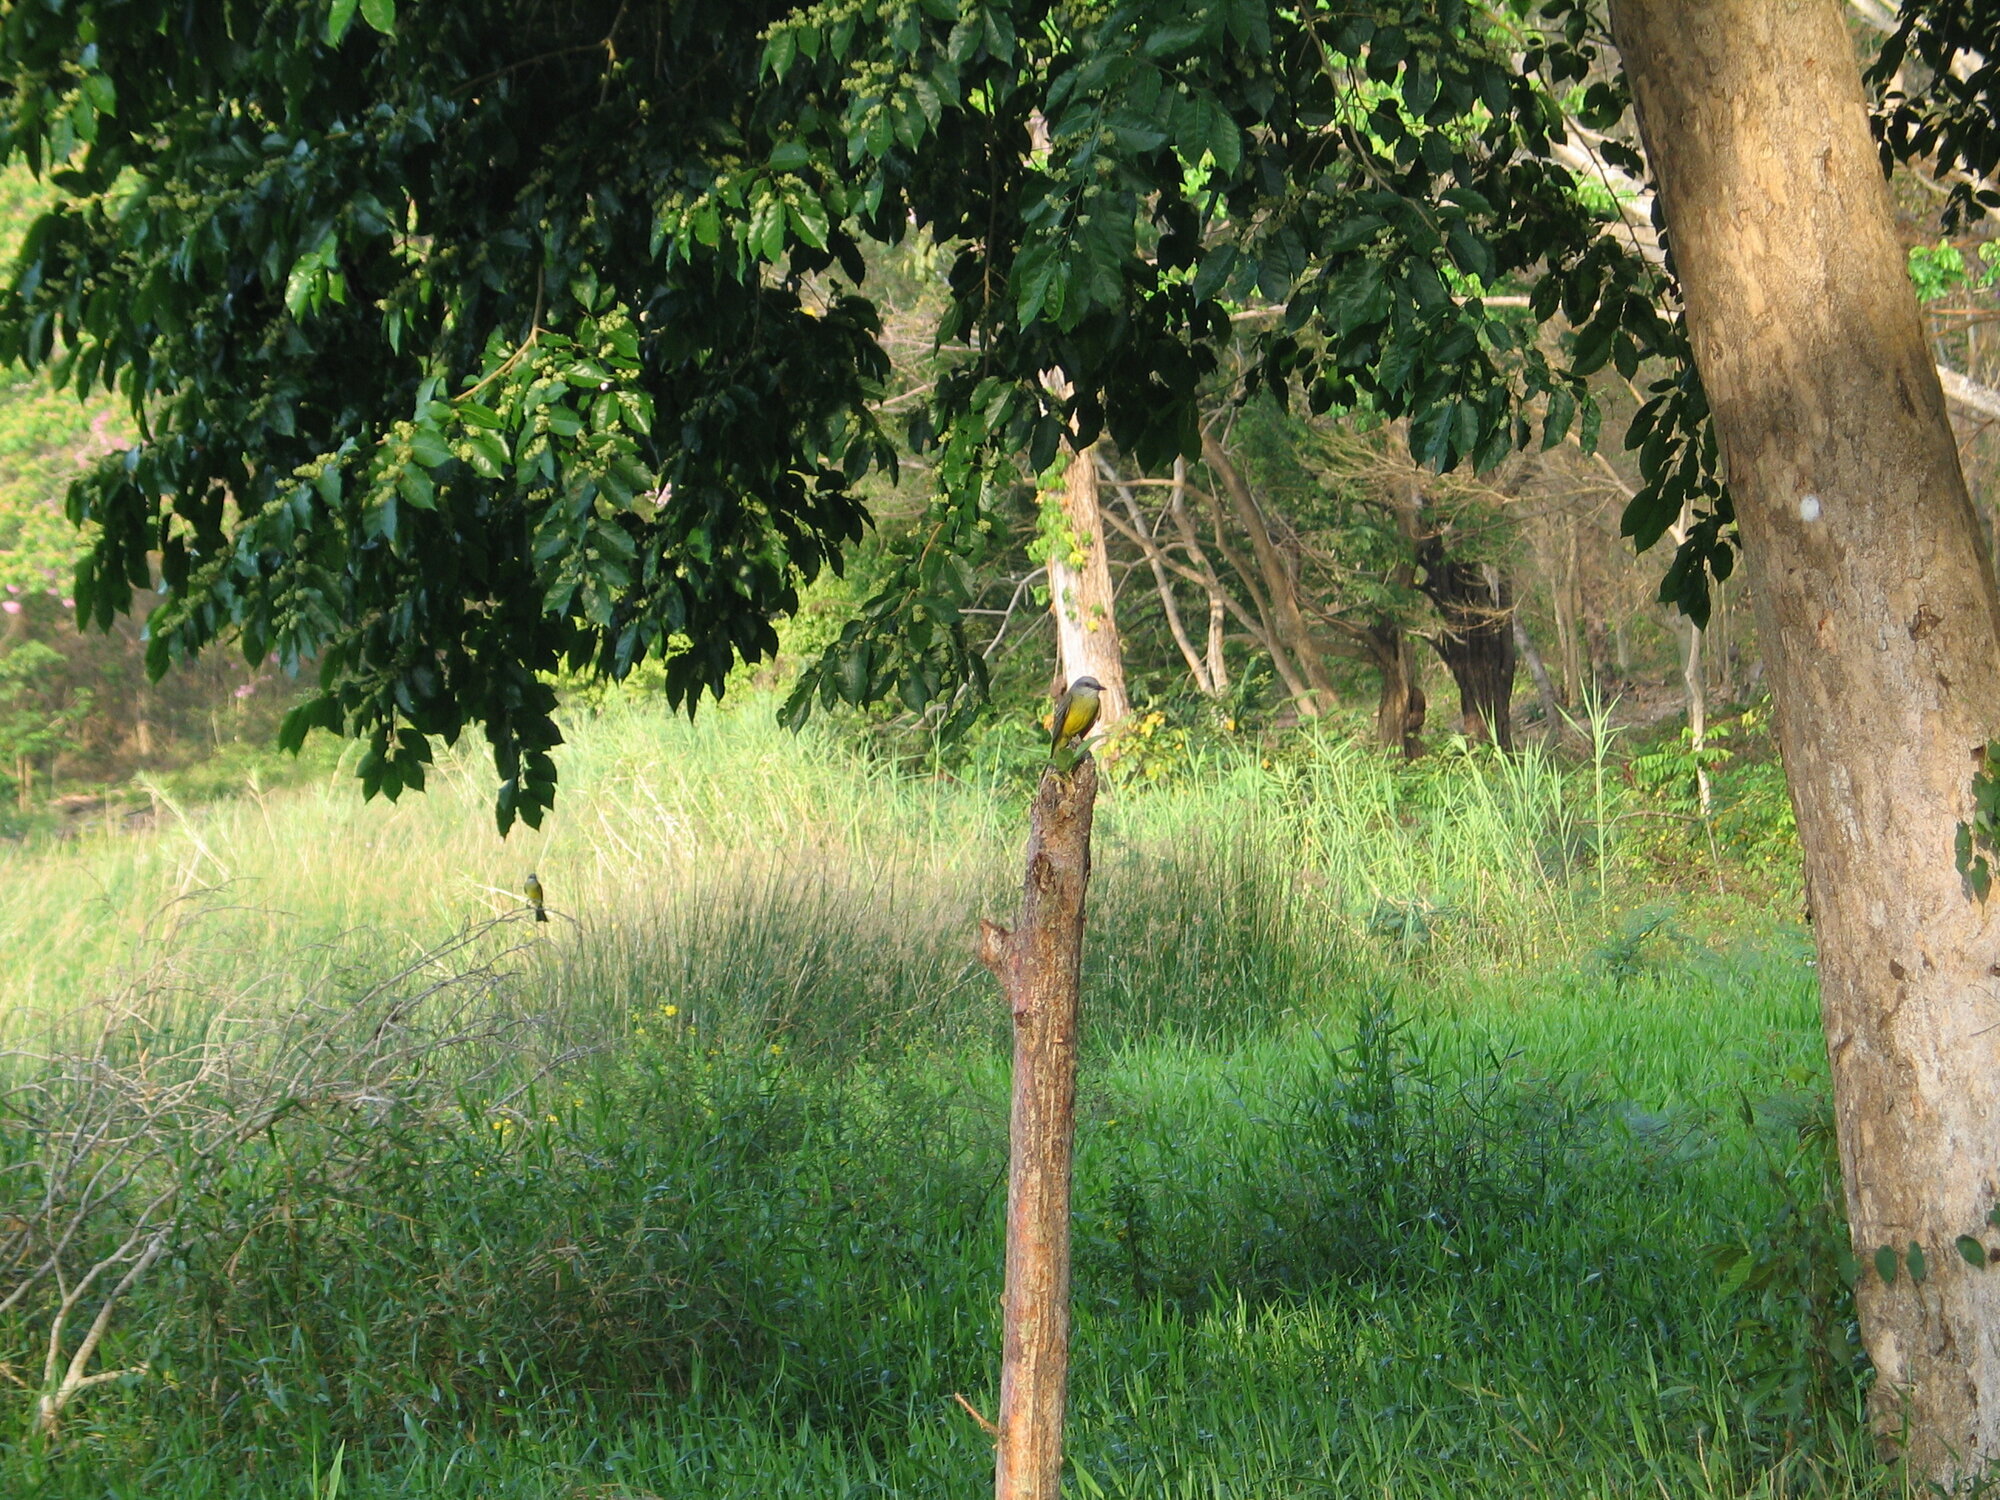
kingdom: Animalia
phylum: Chordata
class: Aves
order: Passeriformes
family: Tyrannidae
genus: Tyrannus
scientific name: Tyrannus melancholicus
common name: Tropical kingbird
